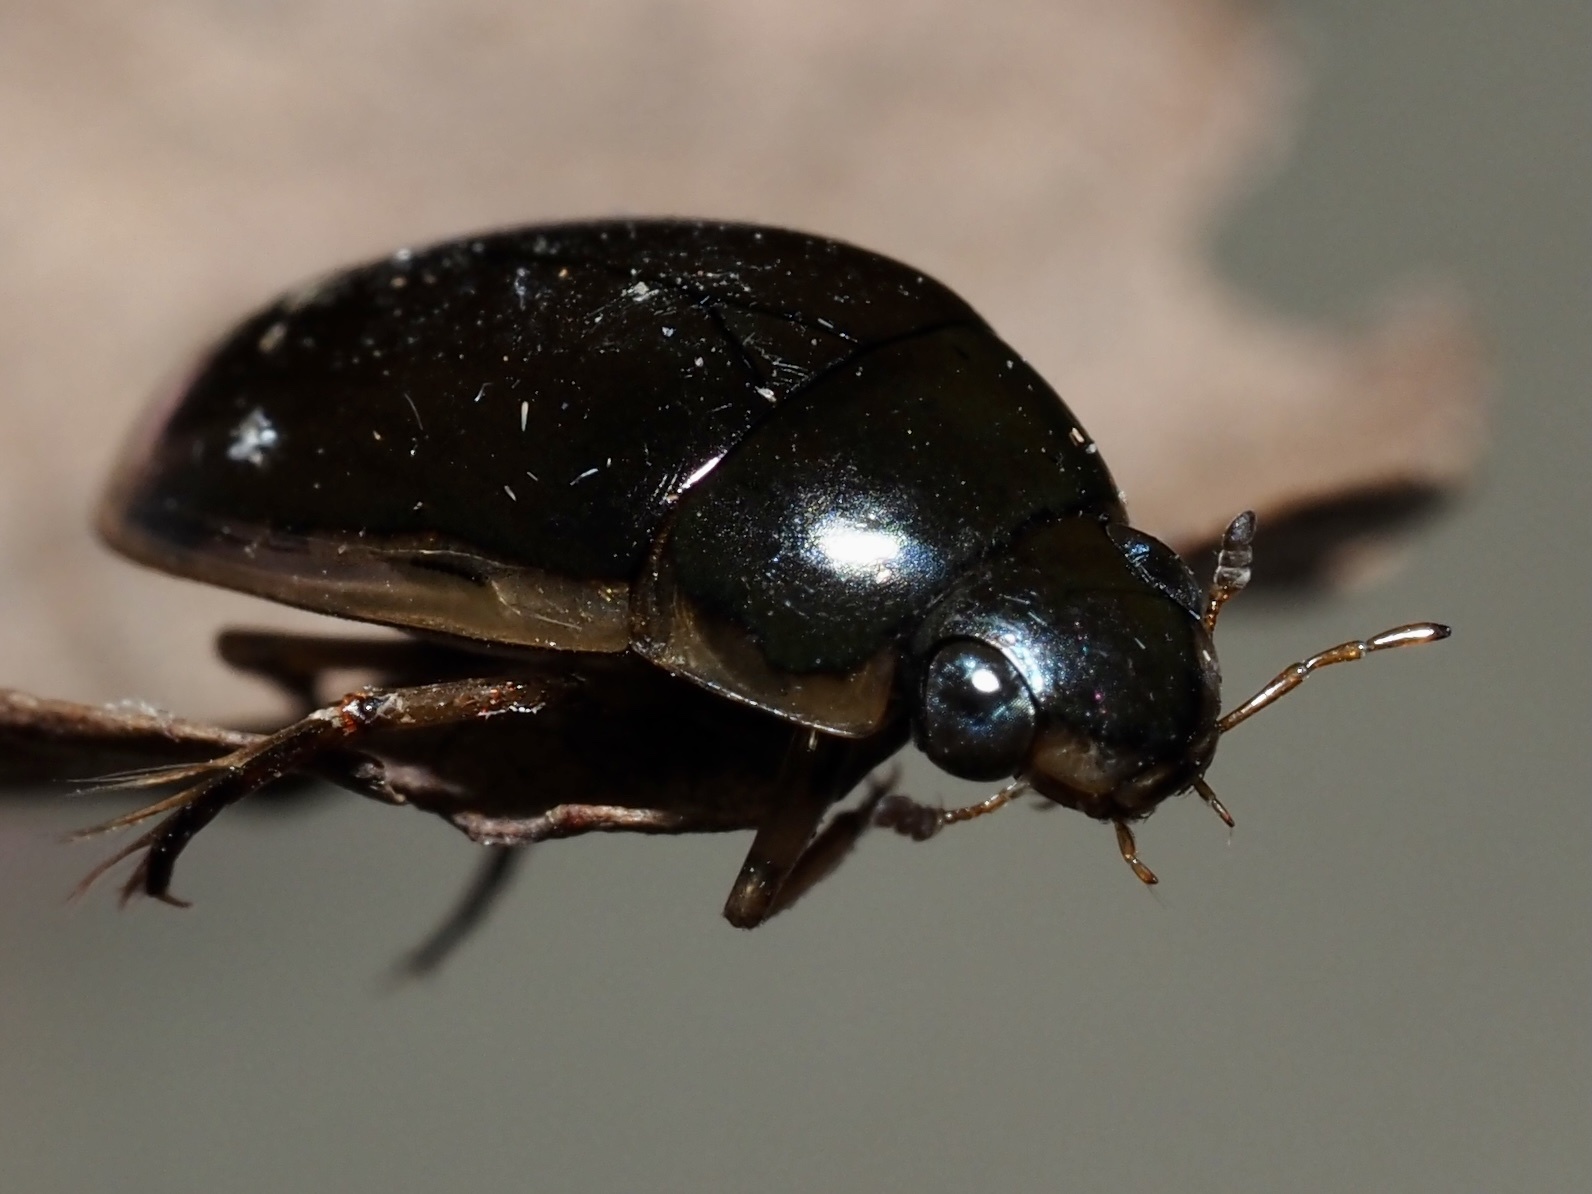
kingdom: Animalia
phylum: Arthropoda
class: Insecta
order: Coleoptera
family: Hydrophilidae
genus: Tropisternus
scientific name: Tropisternus lateralis
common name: Lateral-banded water scavenger beetle
